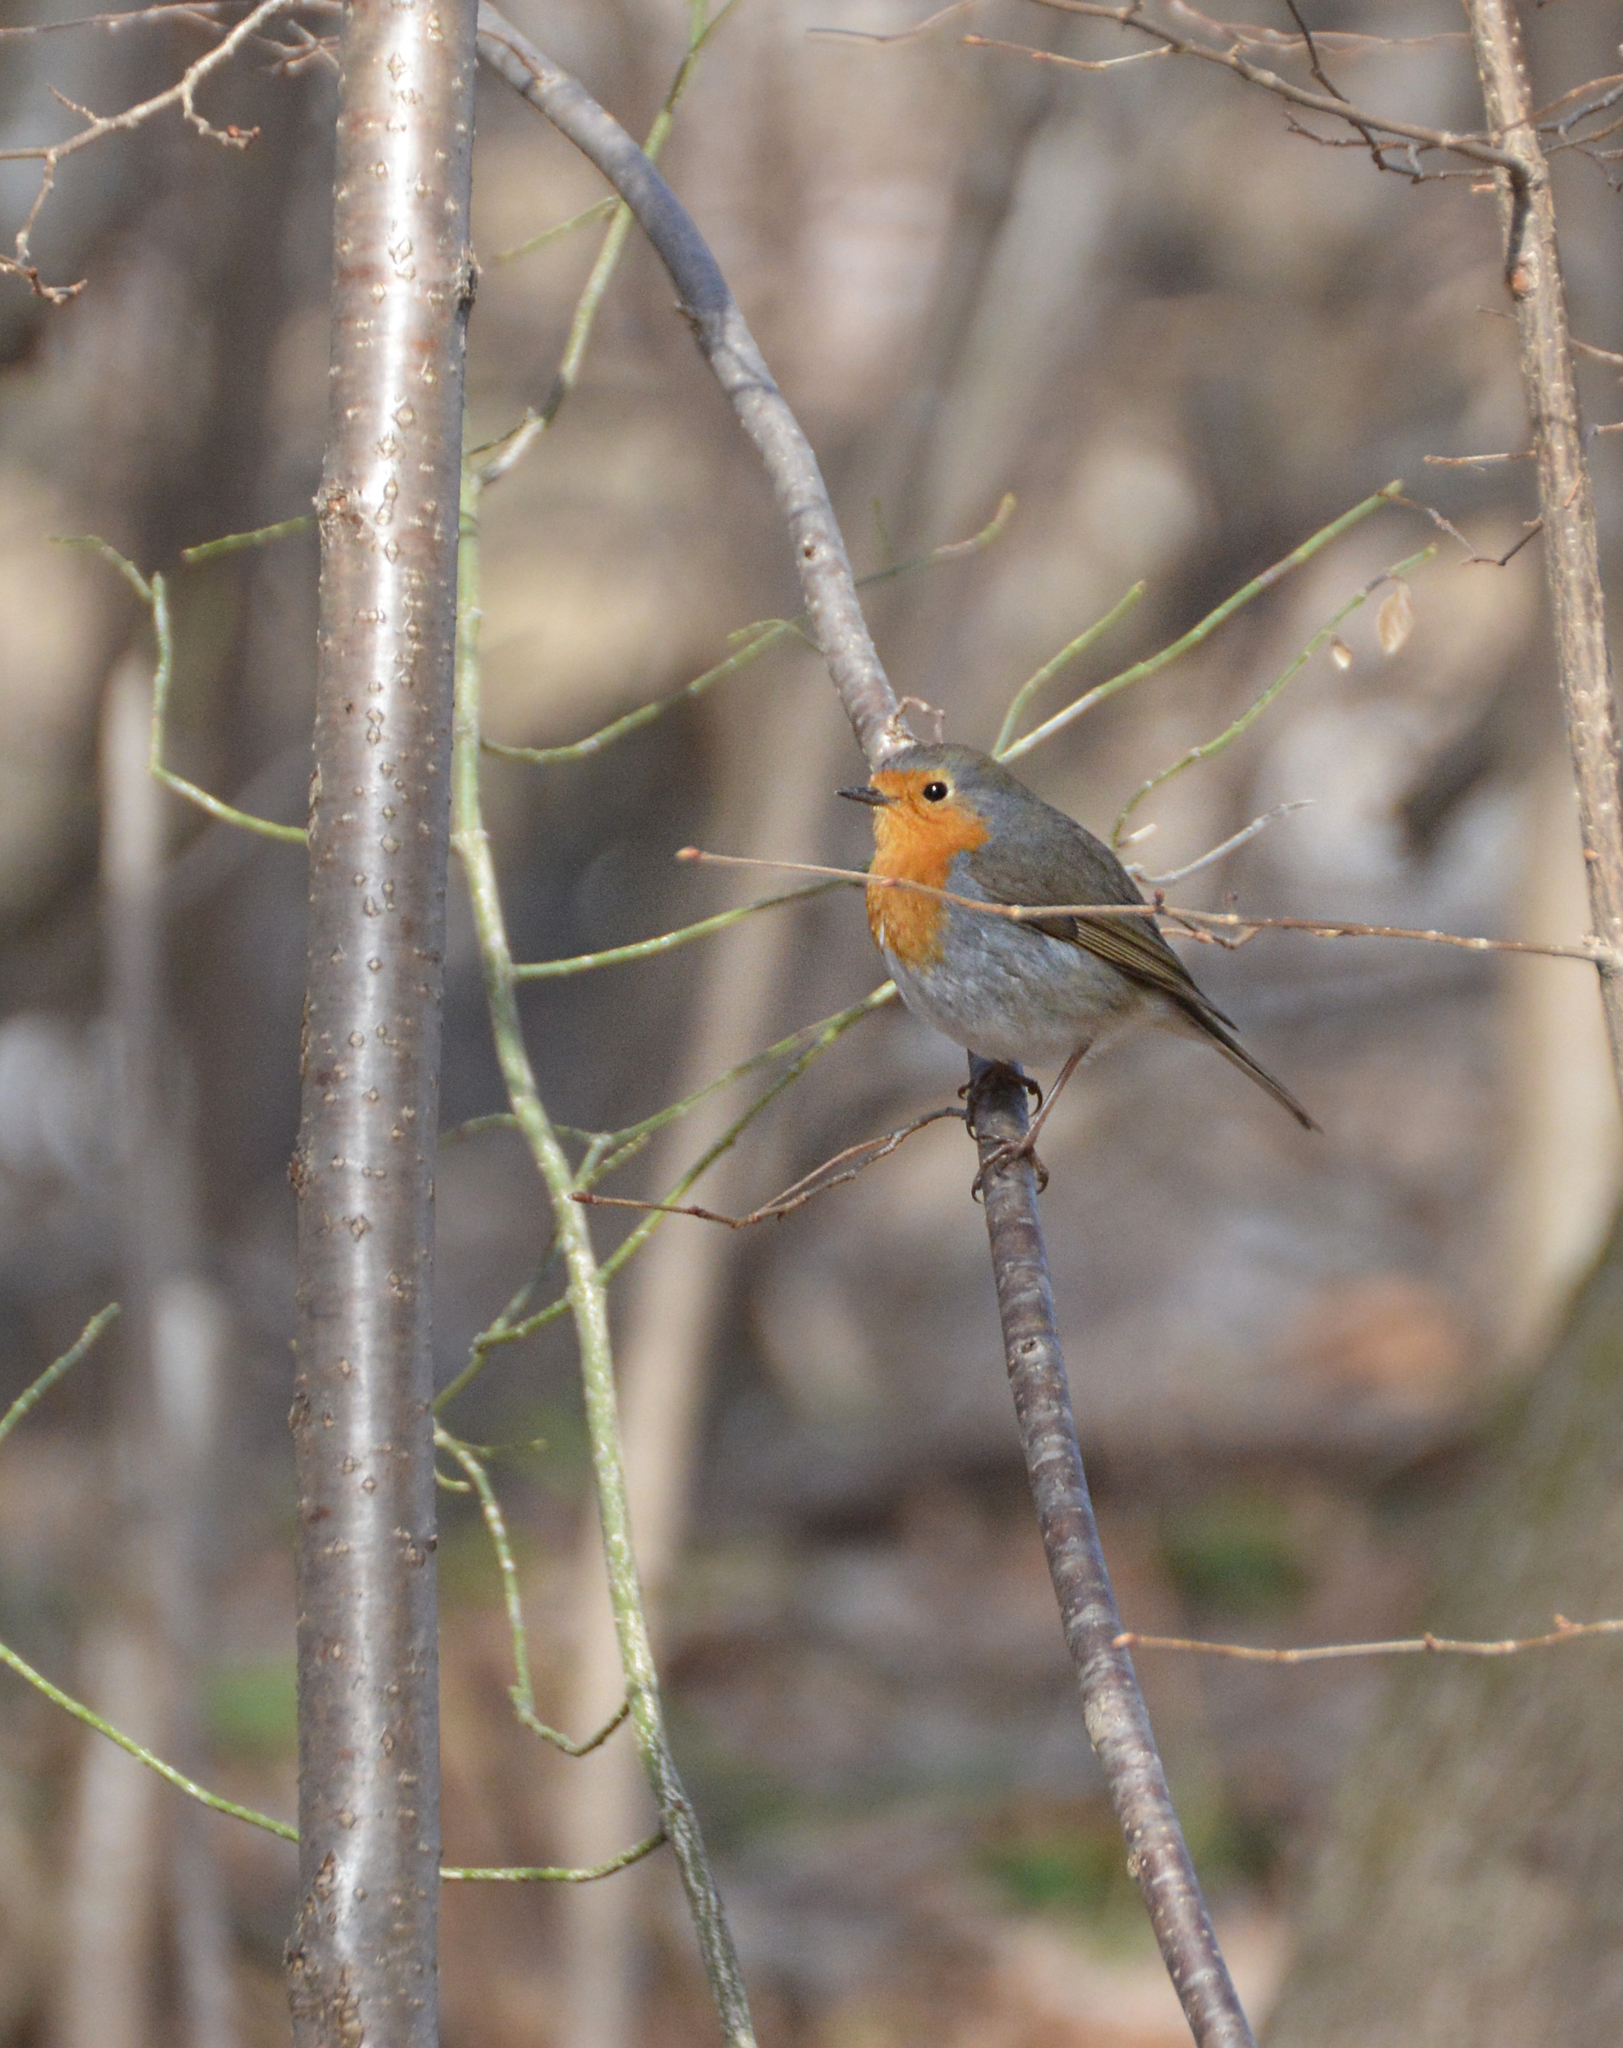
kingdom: Animalia
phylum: Chordata
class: Aves
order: Passeriformes
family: Muscicapidae
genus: Erithacus
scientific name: Erithacus rubecula
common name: European robin
